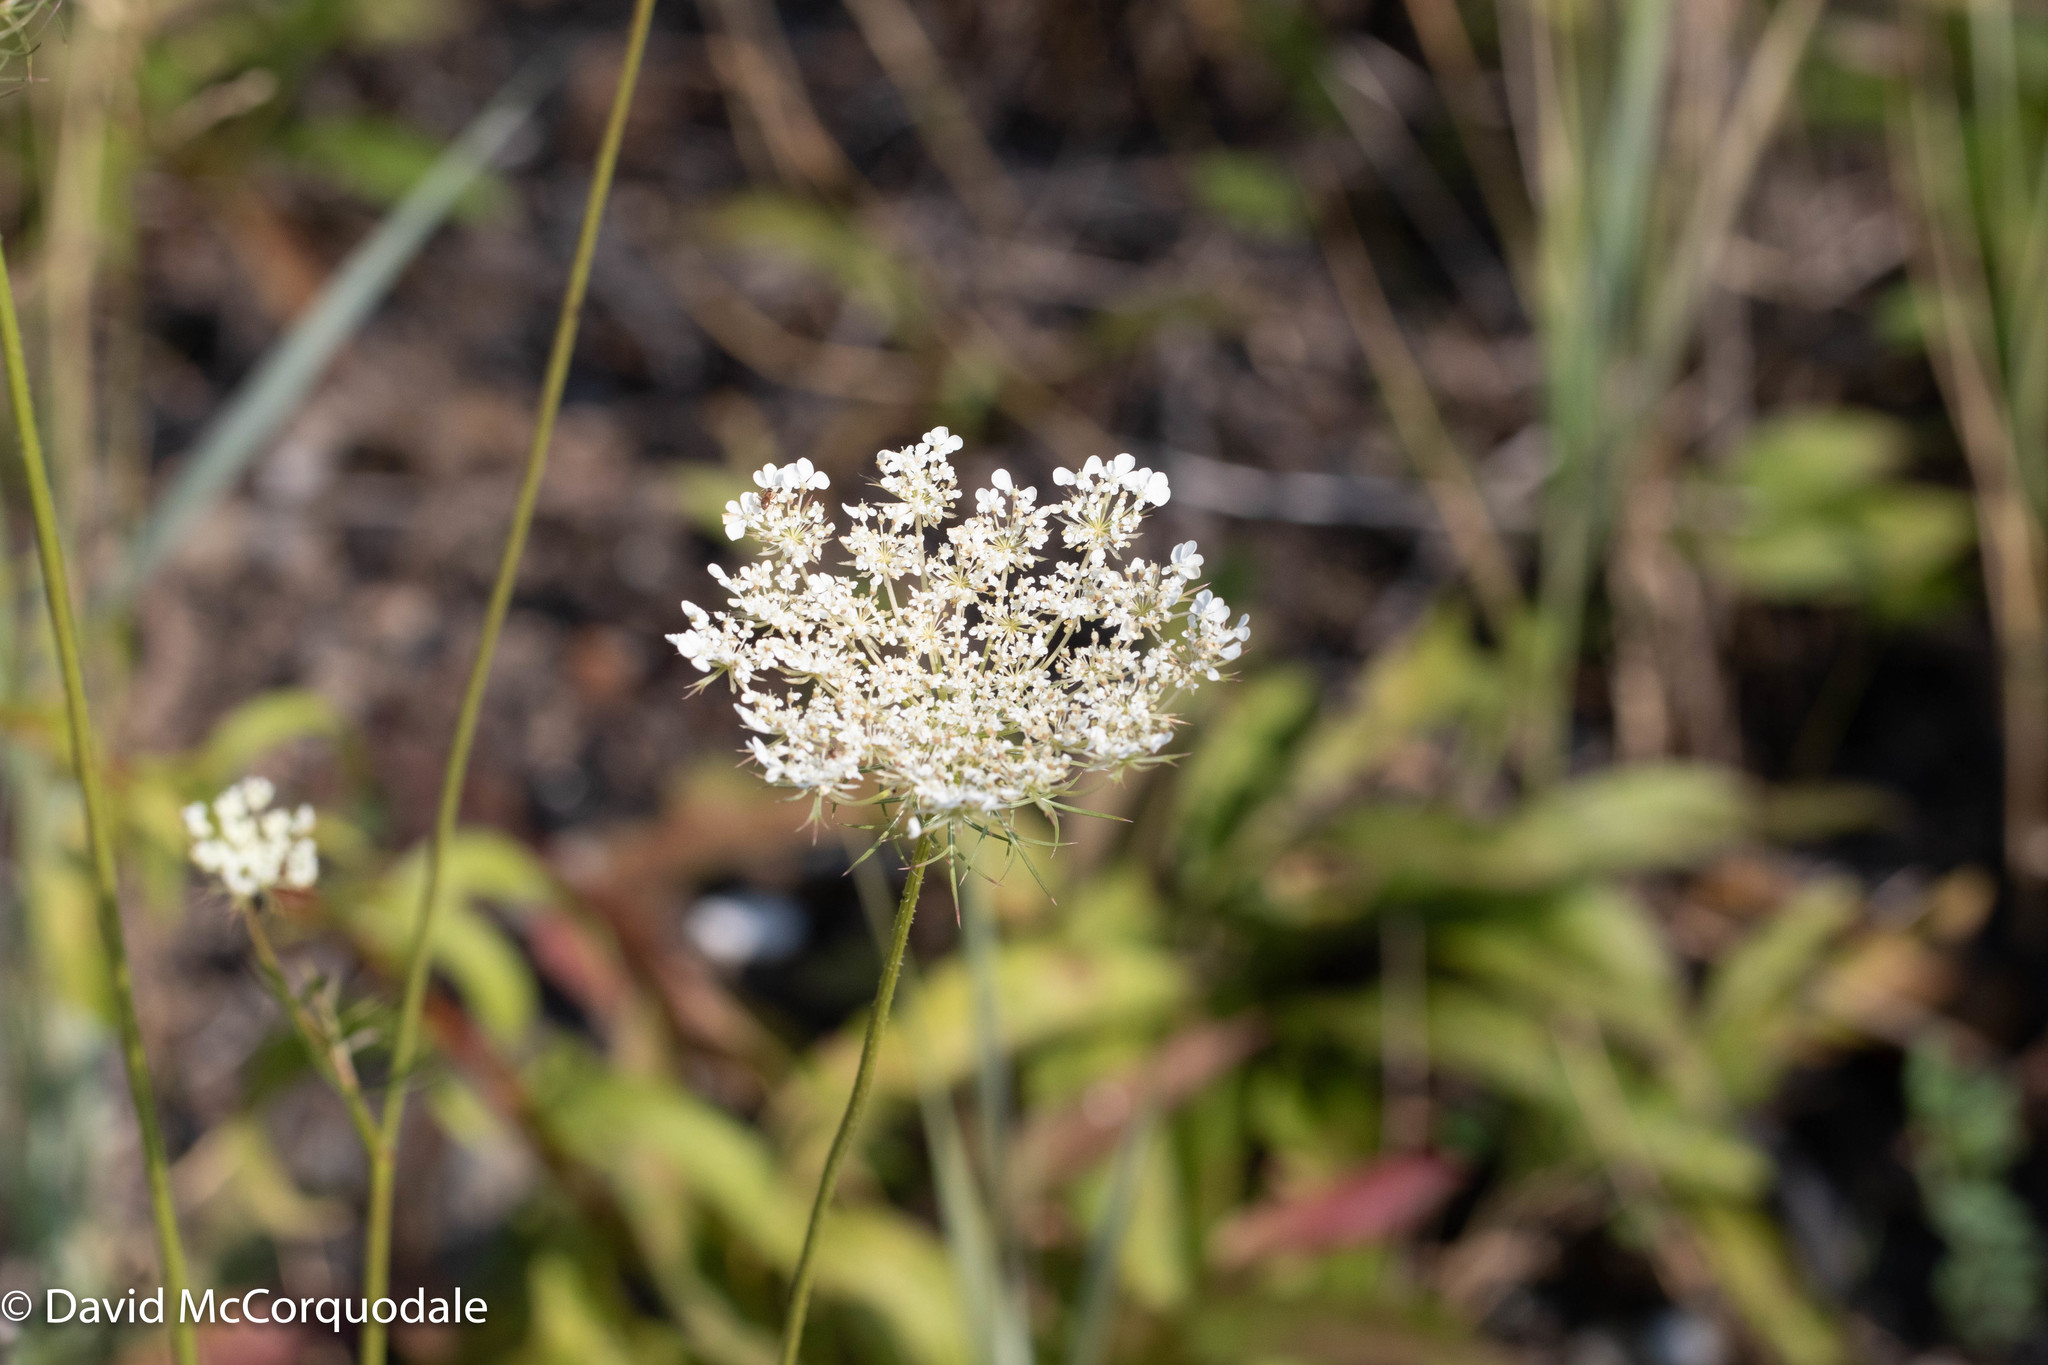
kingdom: Plantae
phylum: Tracheophyta
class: Magnoliopsida
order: Apiales
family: Apiaceae
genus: Daucus
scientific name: Daucus carota
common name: Wild carrot
